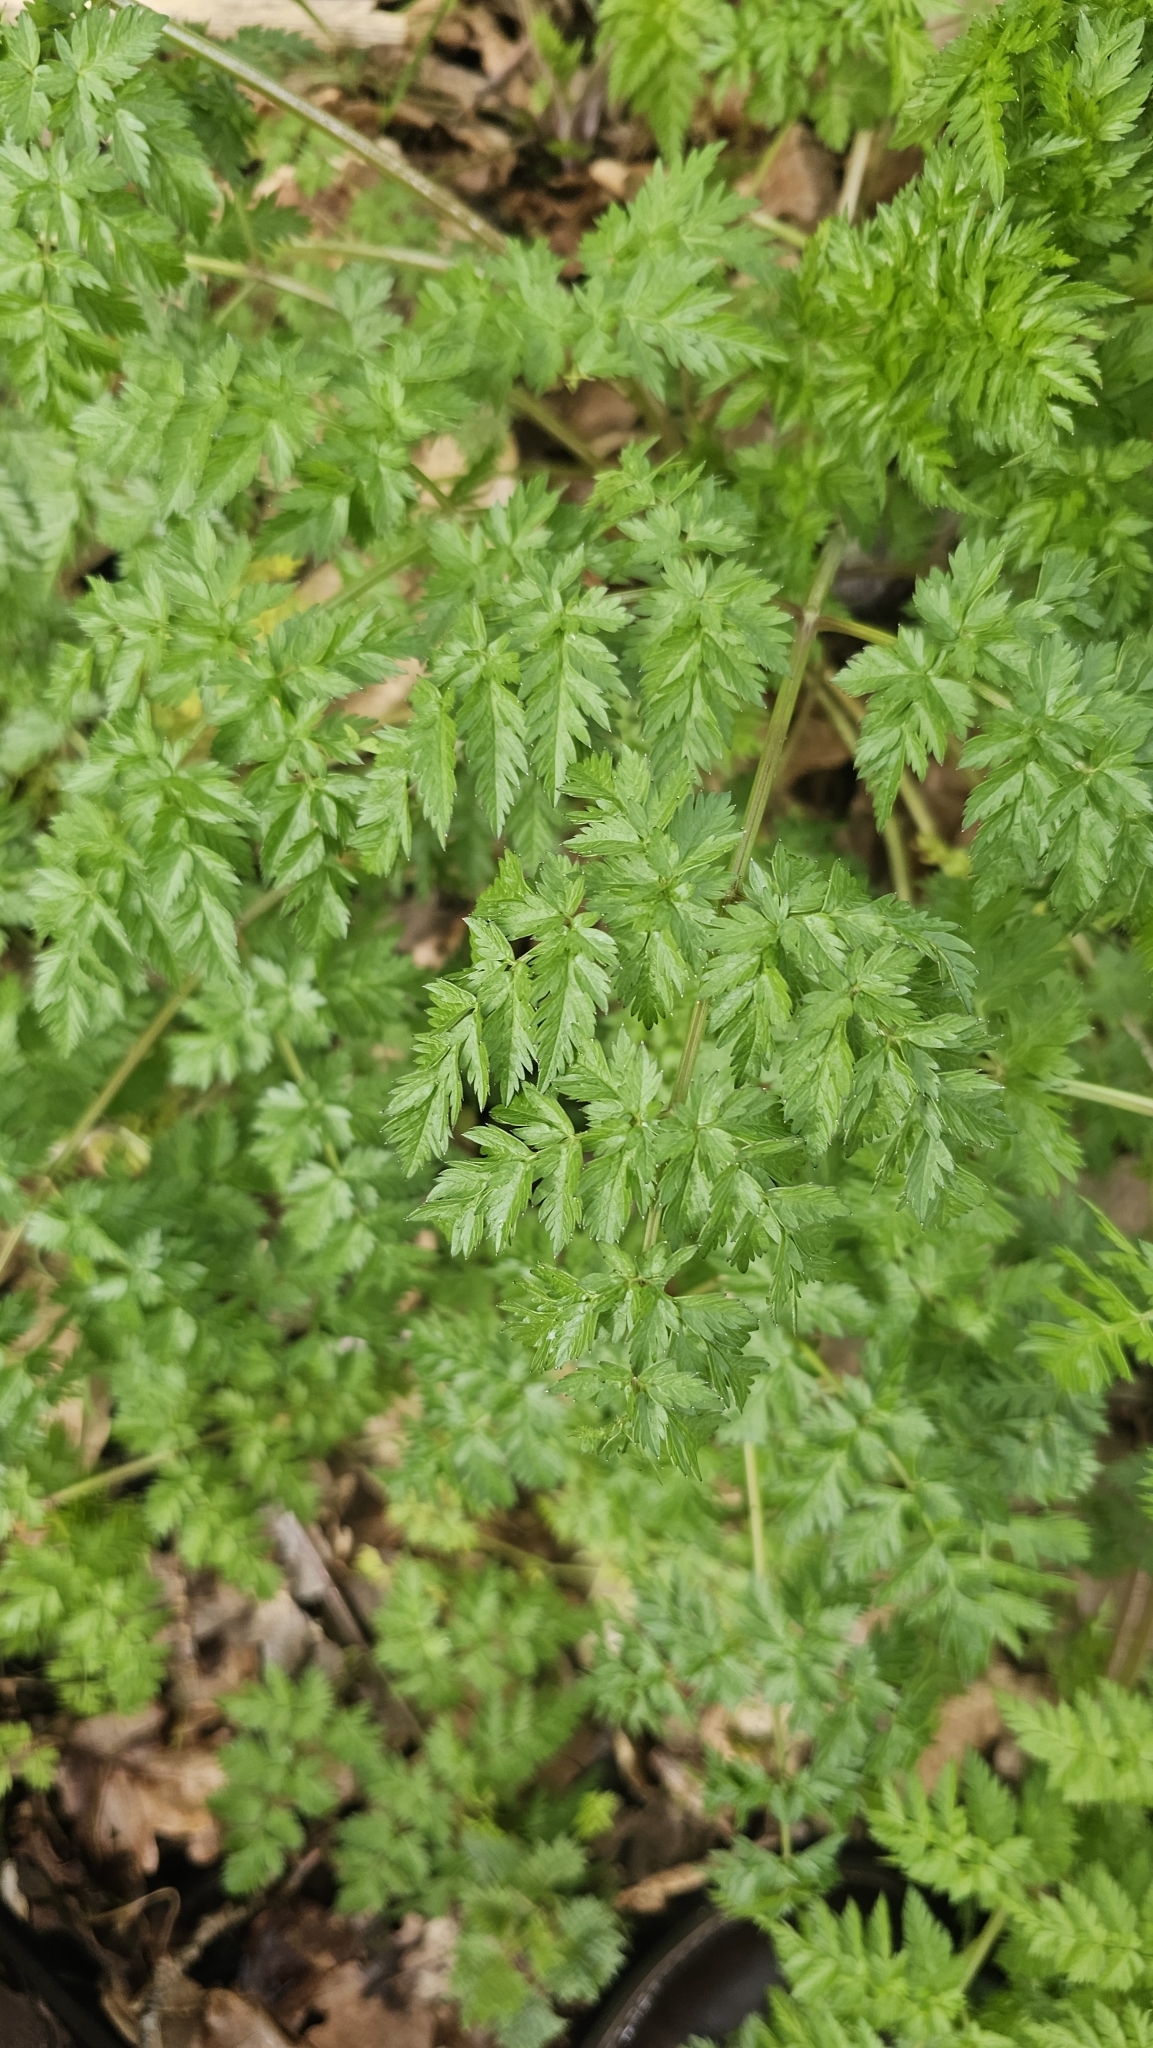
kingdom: Plantae
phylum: Tracheophyta
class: Magnoliopsida
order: Apiales
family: Apiaceae
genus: Anthriscus
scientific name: Anthriscus sylvestris
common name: Cow parsley
